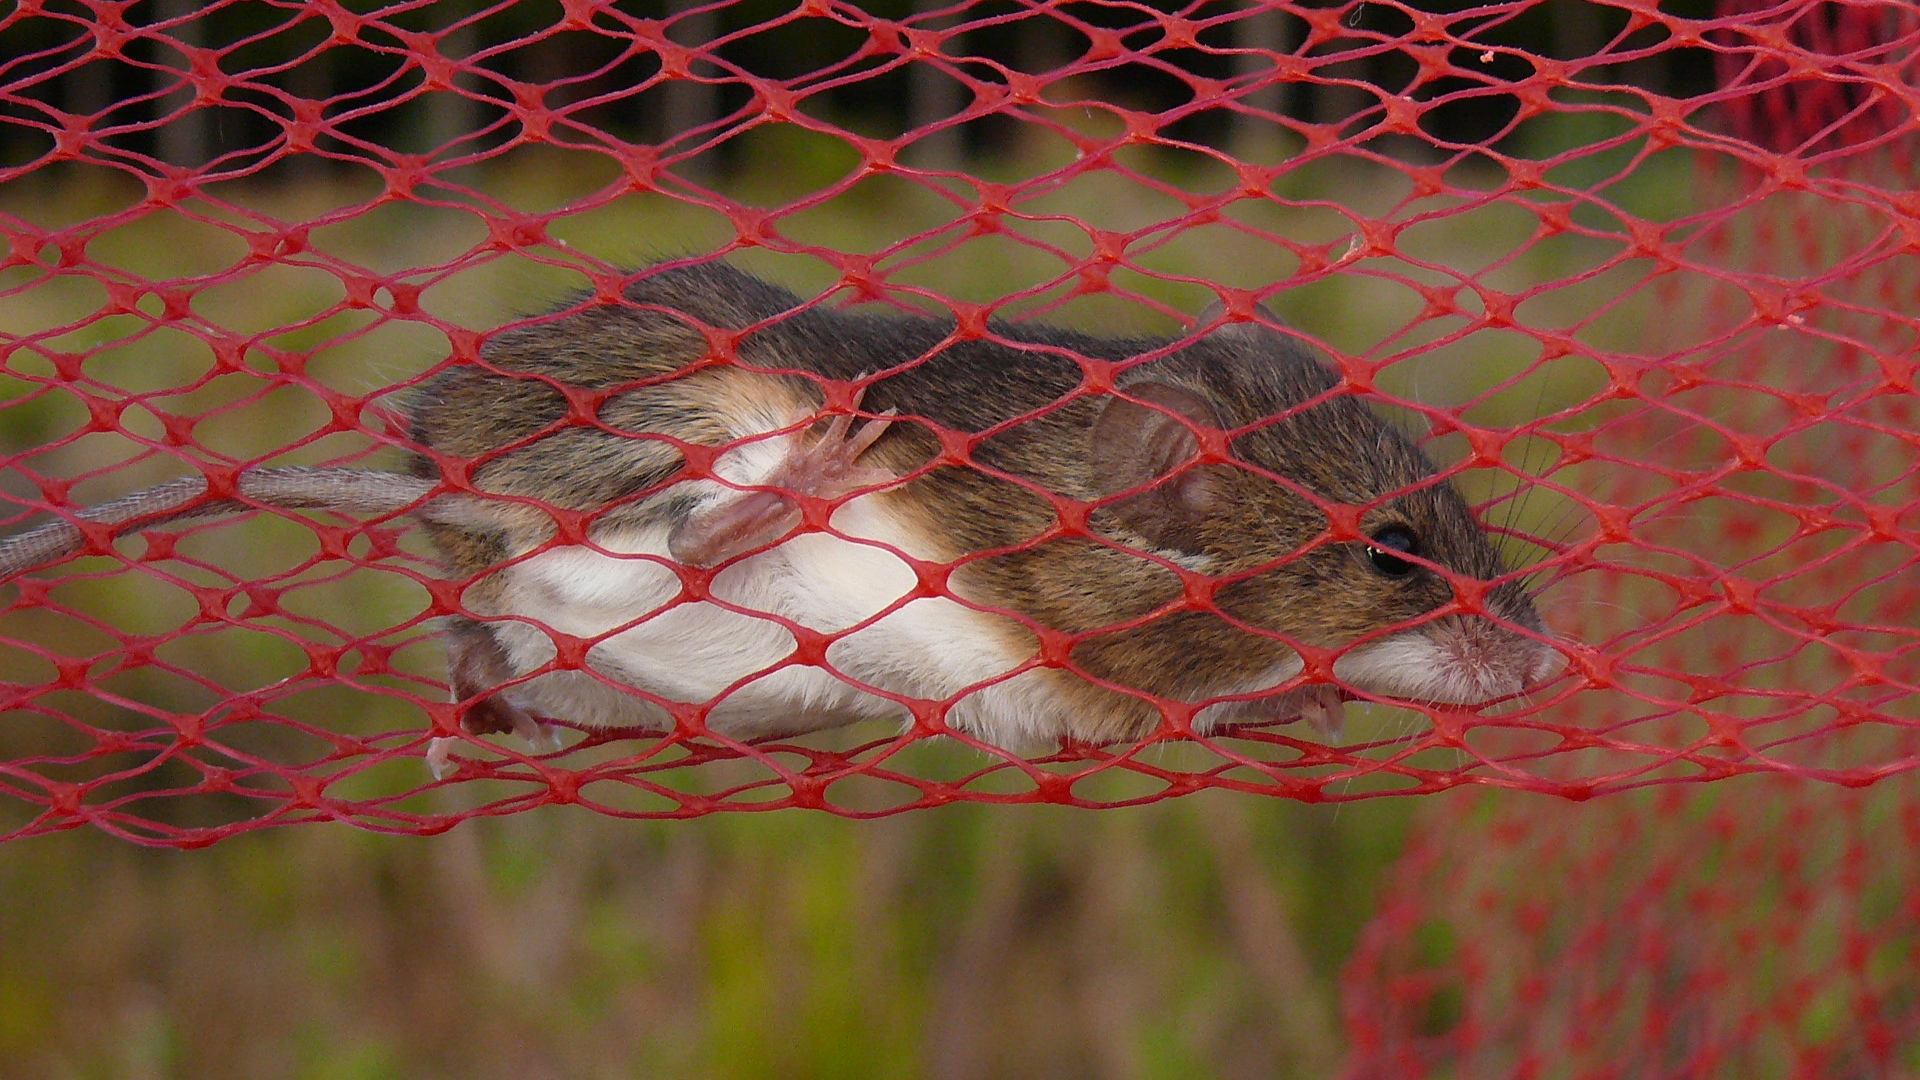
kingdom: Animalia
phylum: Chordata
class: Mammalia
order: Rodentia
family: Muridae
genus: Mus
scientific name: Mus minutoides
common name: Southern african pygmy mouse
